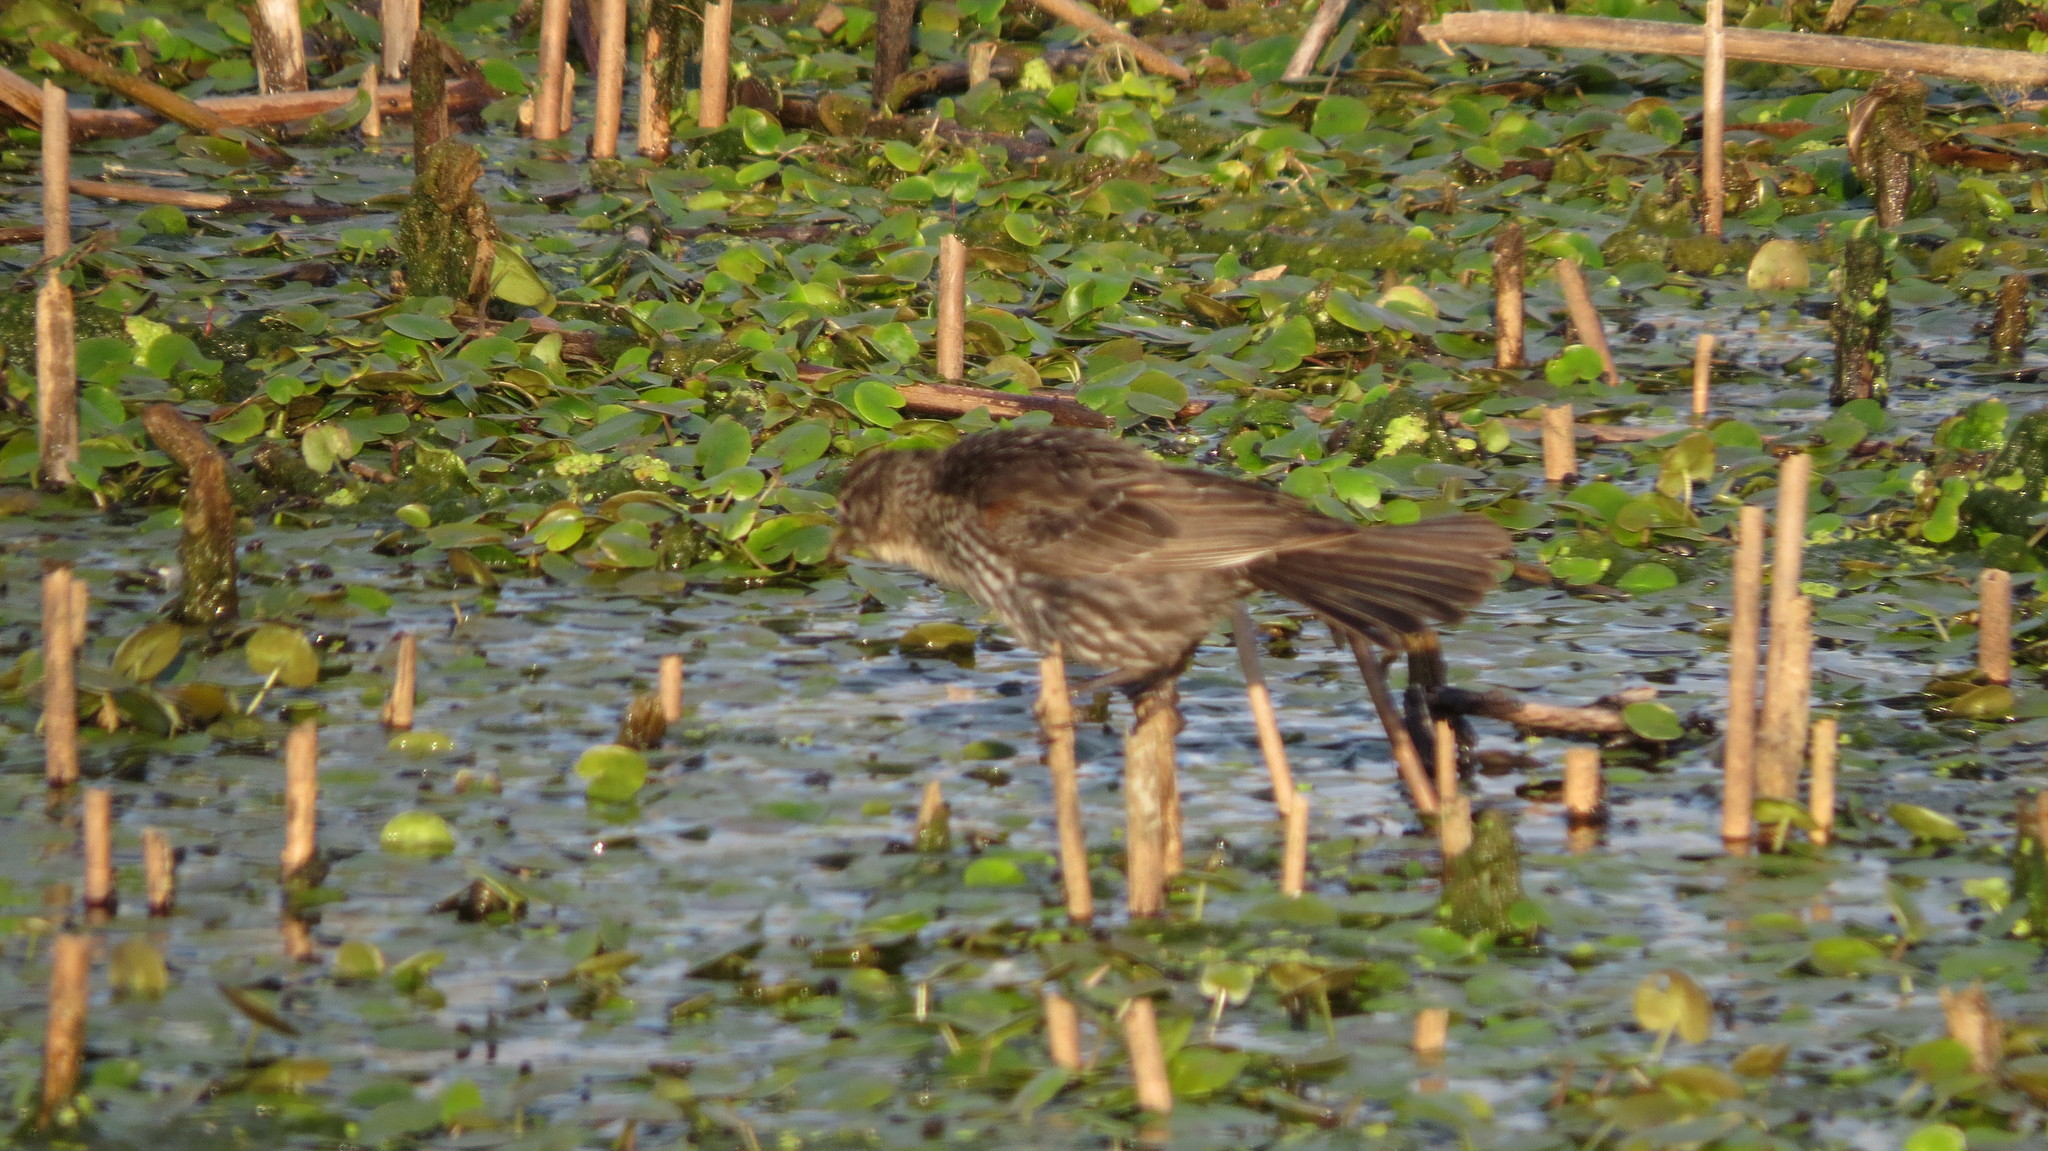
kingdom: Animalia
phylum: Chordata
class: Aves
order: Passeriformes
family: Icteridae
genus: Agelaius
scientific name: Agelaius phoeniceus
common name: Red-winged blackbird
